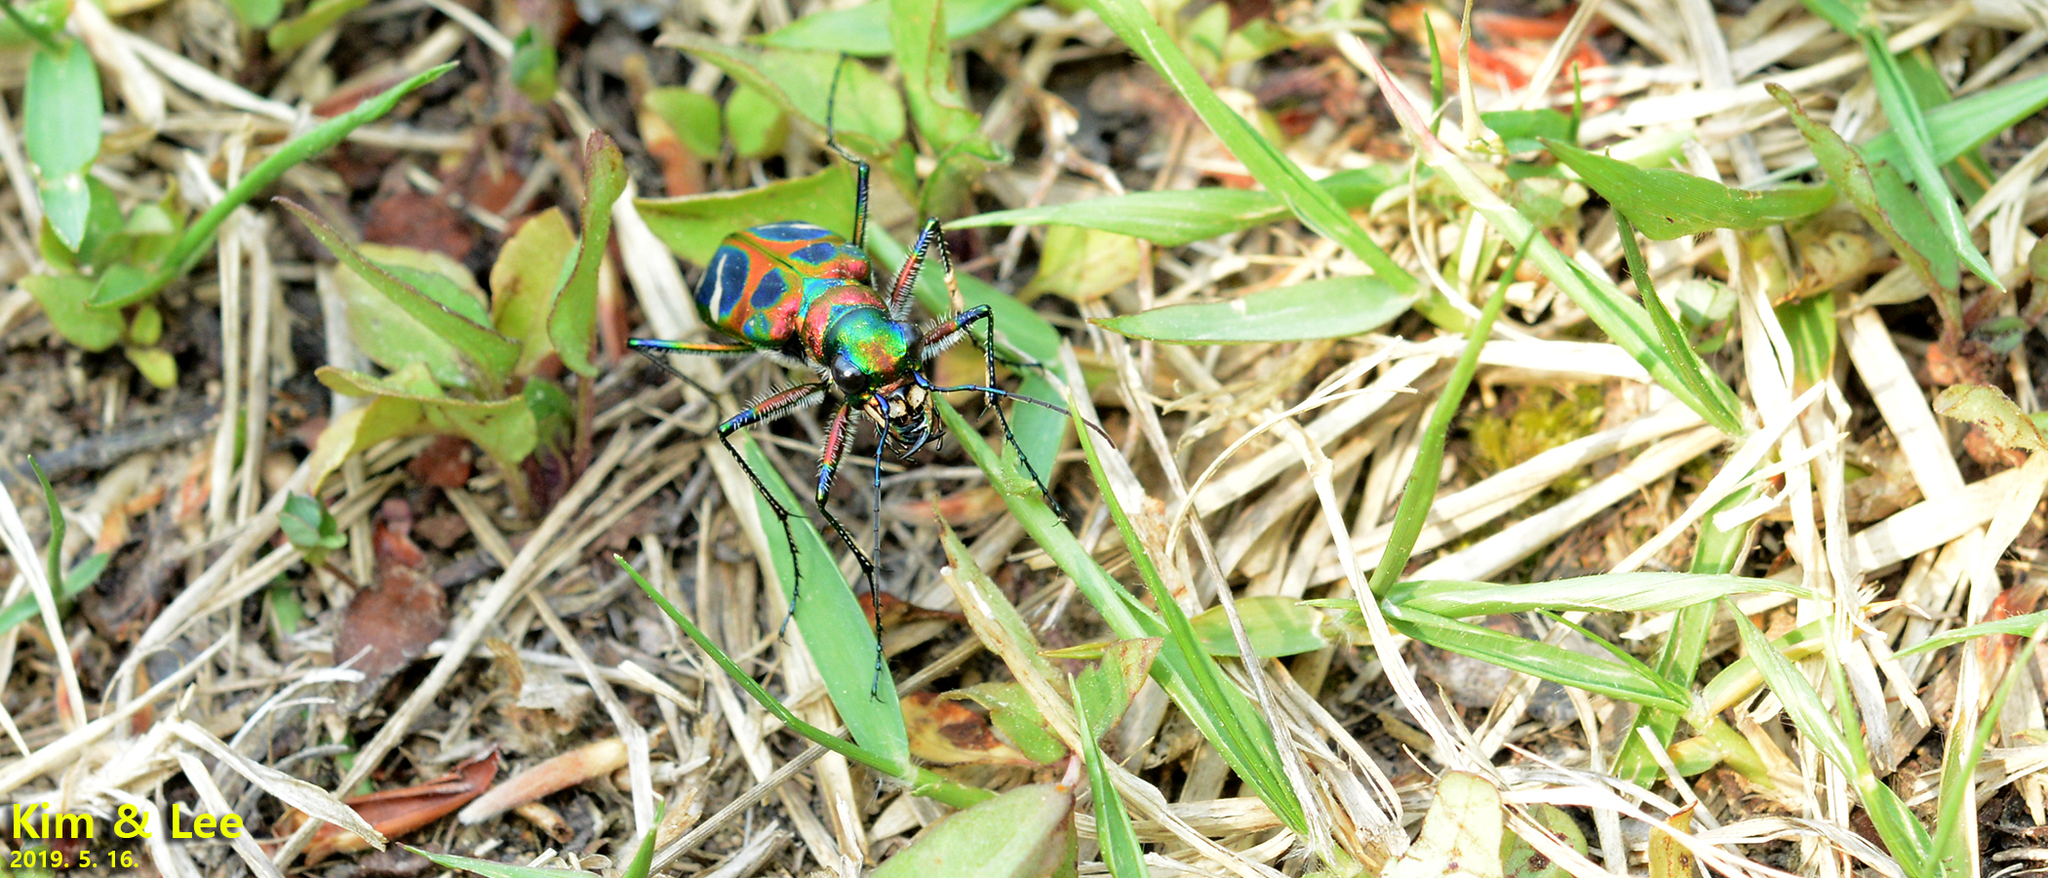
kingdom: Animalia
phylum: Arthropoda
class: Insecta
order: Coleoptera
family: Carabidae
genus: Cicindela
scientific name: Cicindela chinensis
